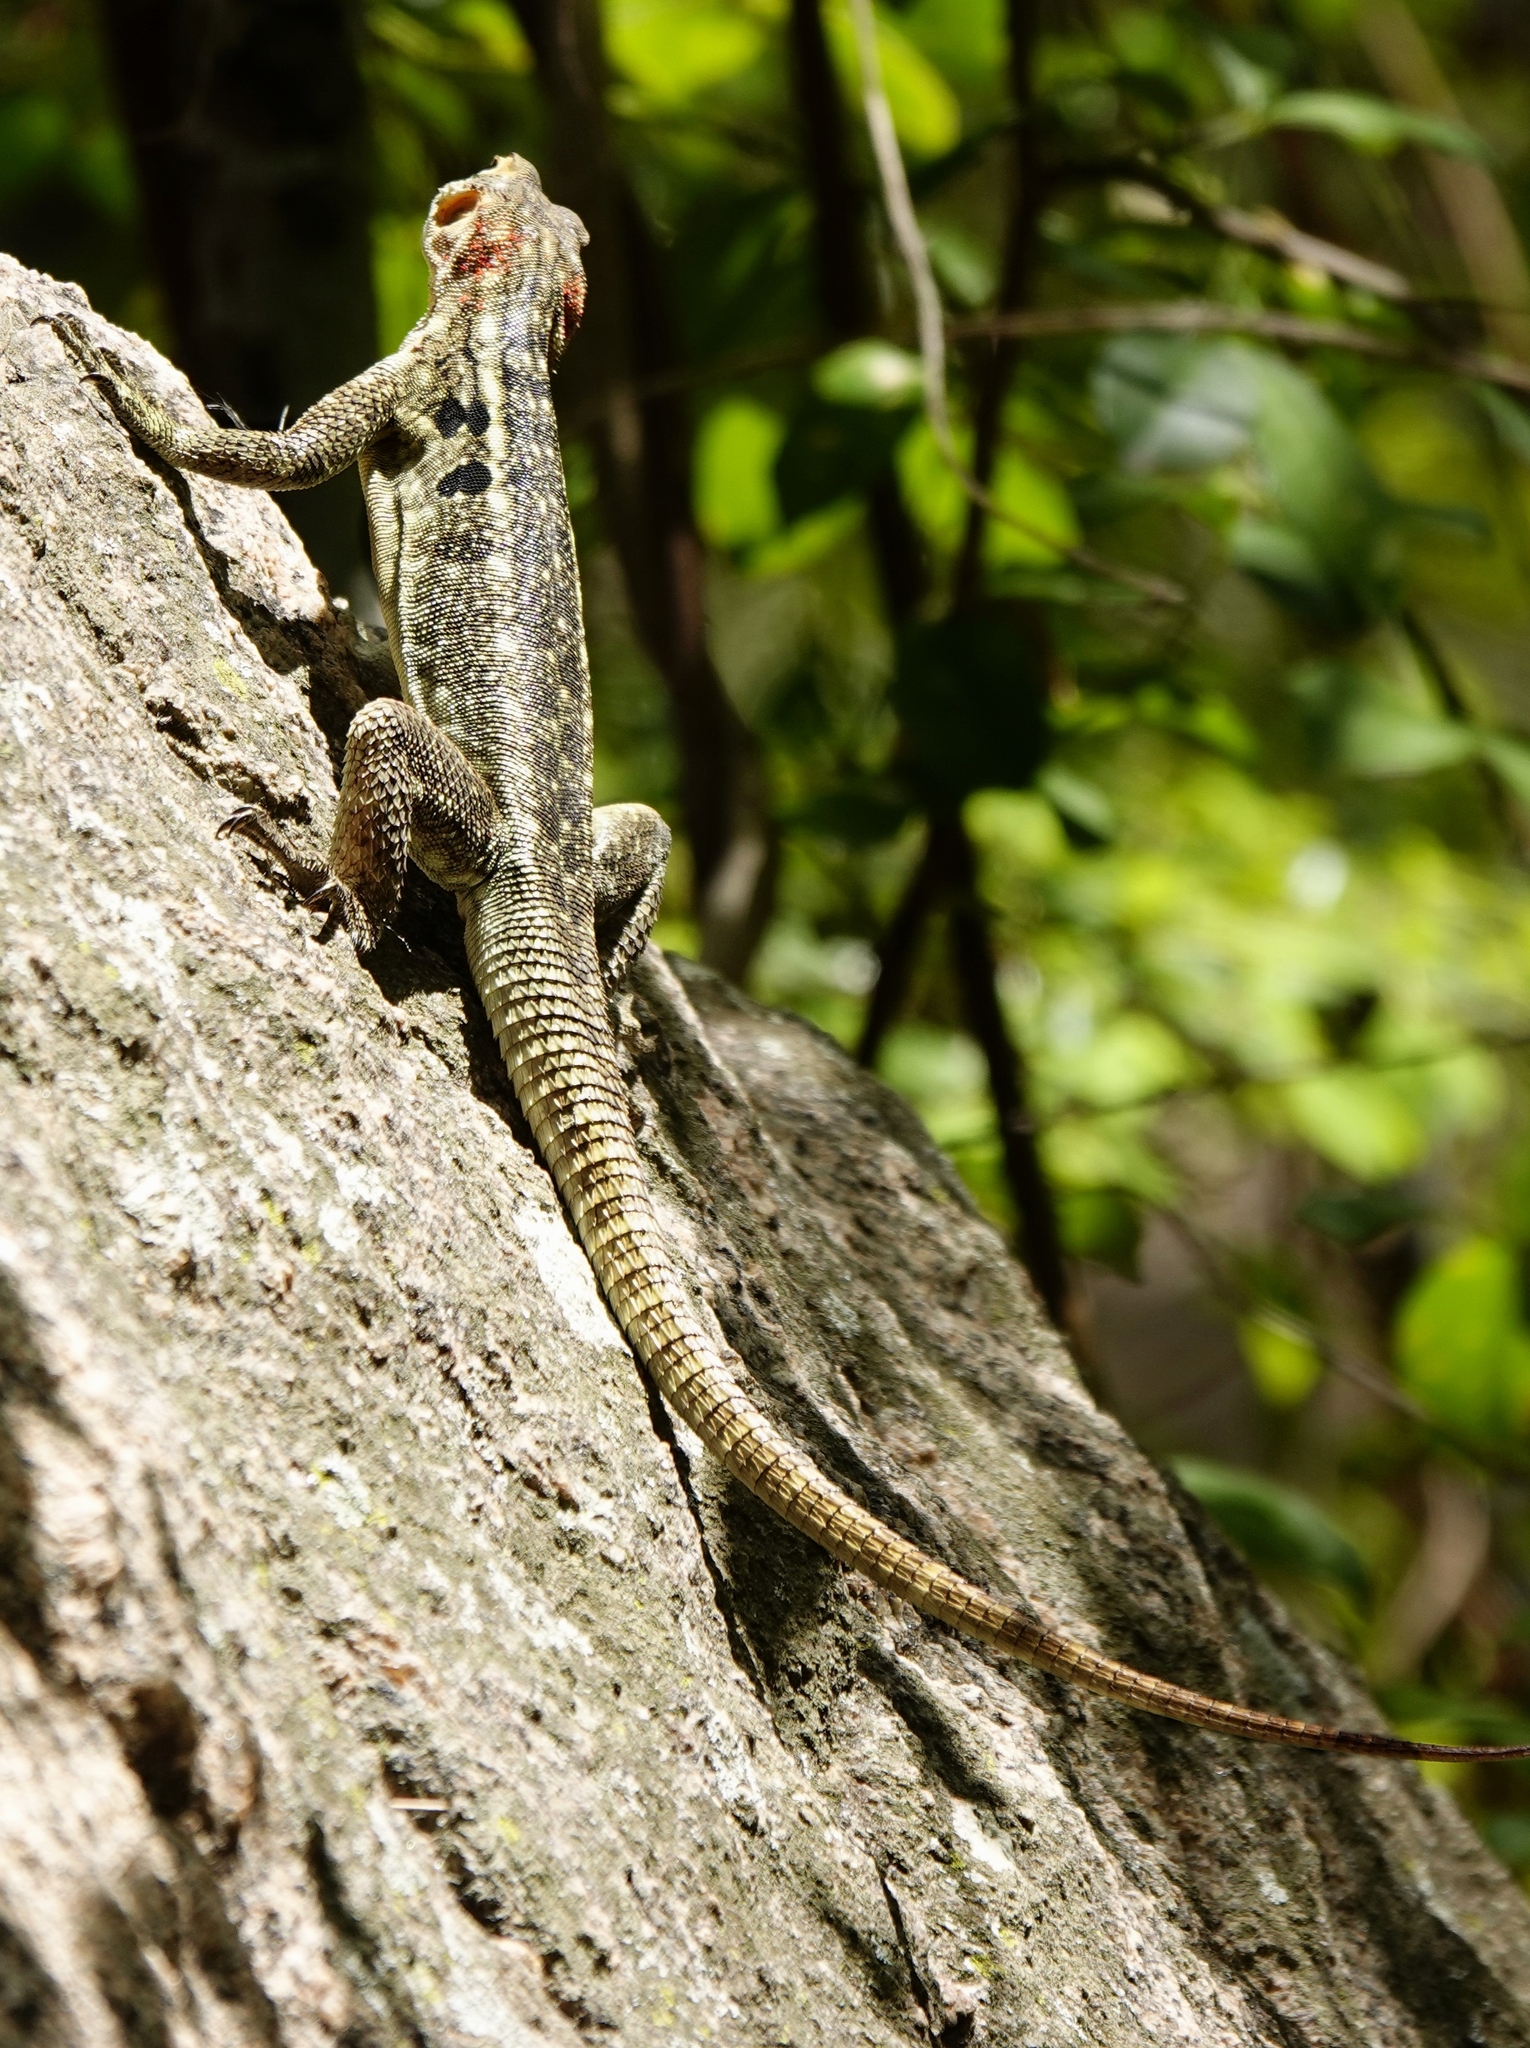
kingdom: Animalia
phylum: Chordata
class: Squamata
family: Opluridae
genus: Oplurus
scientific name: Oplurus quadrimaculatus
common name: Duméril's madagascar swift
